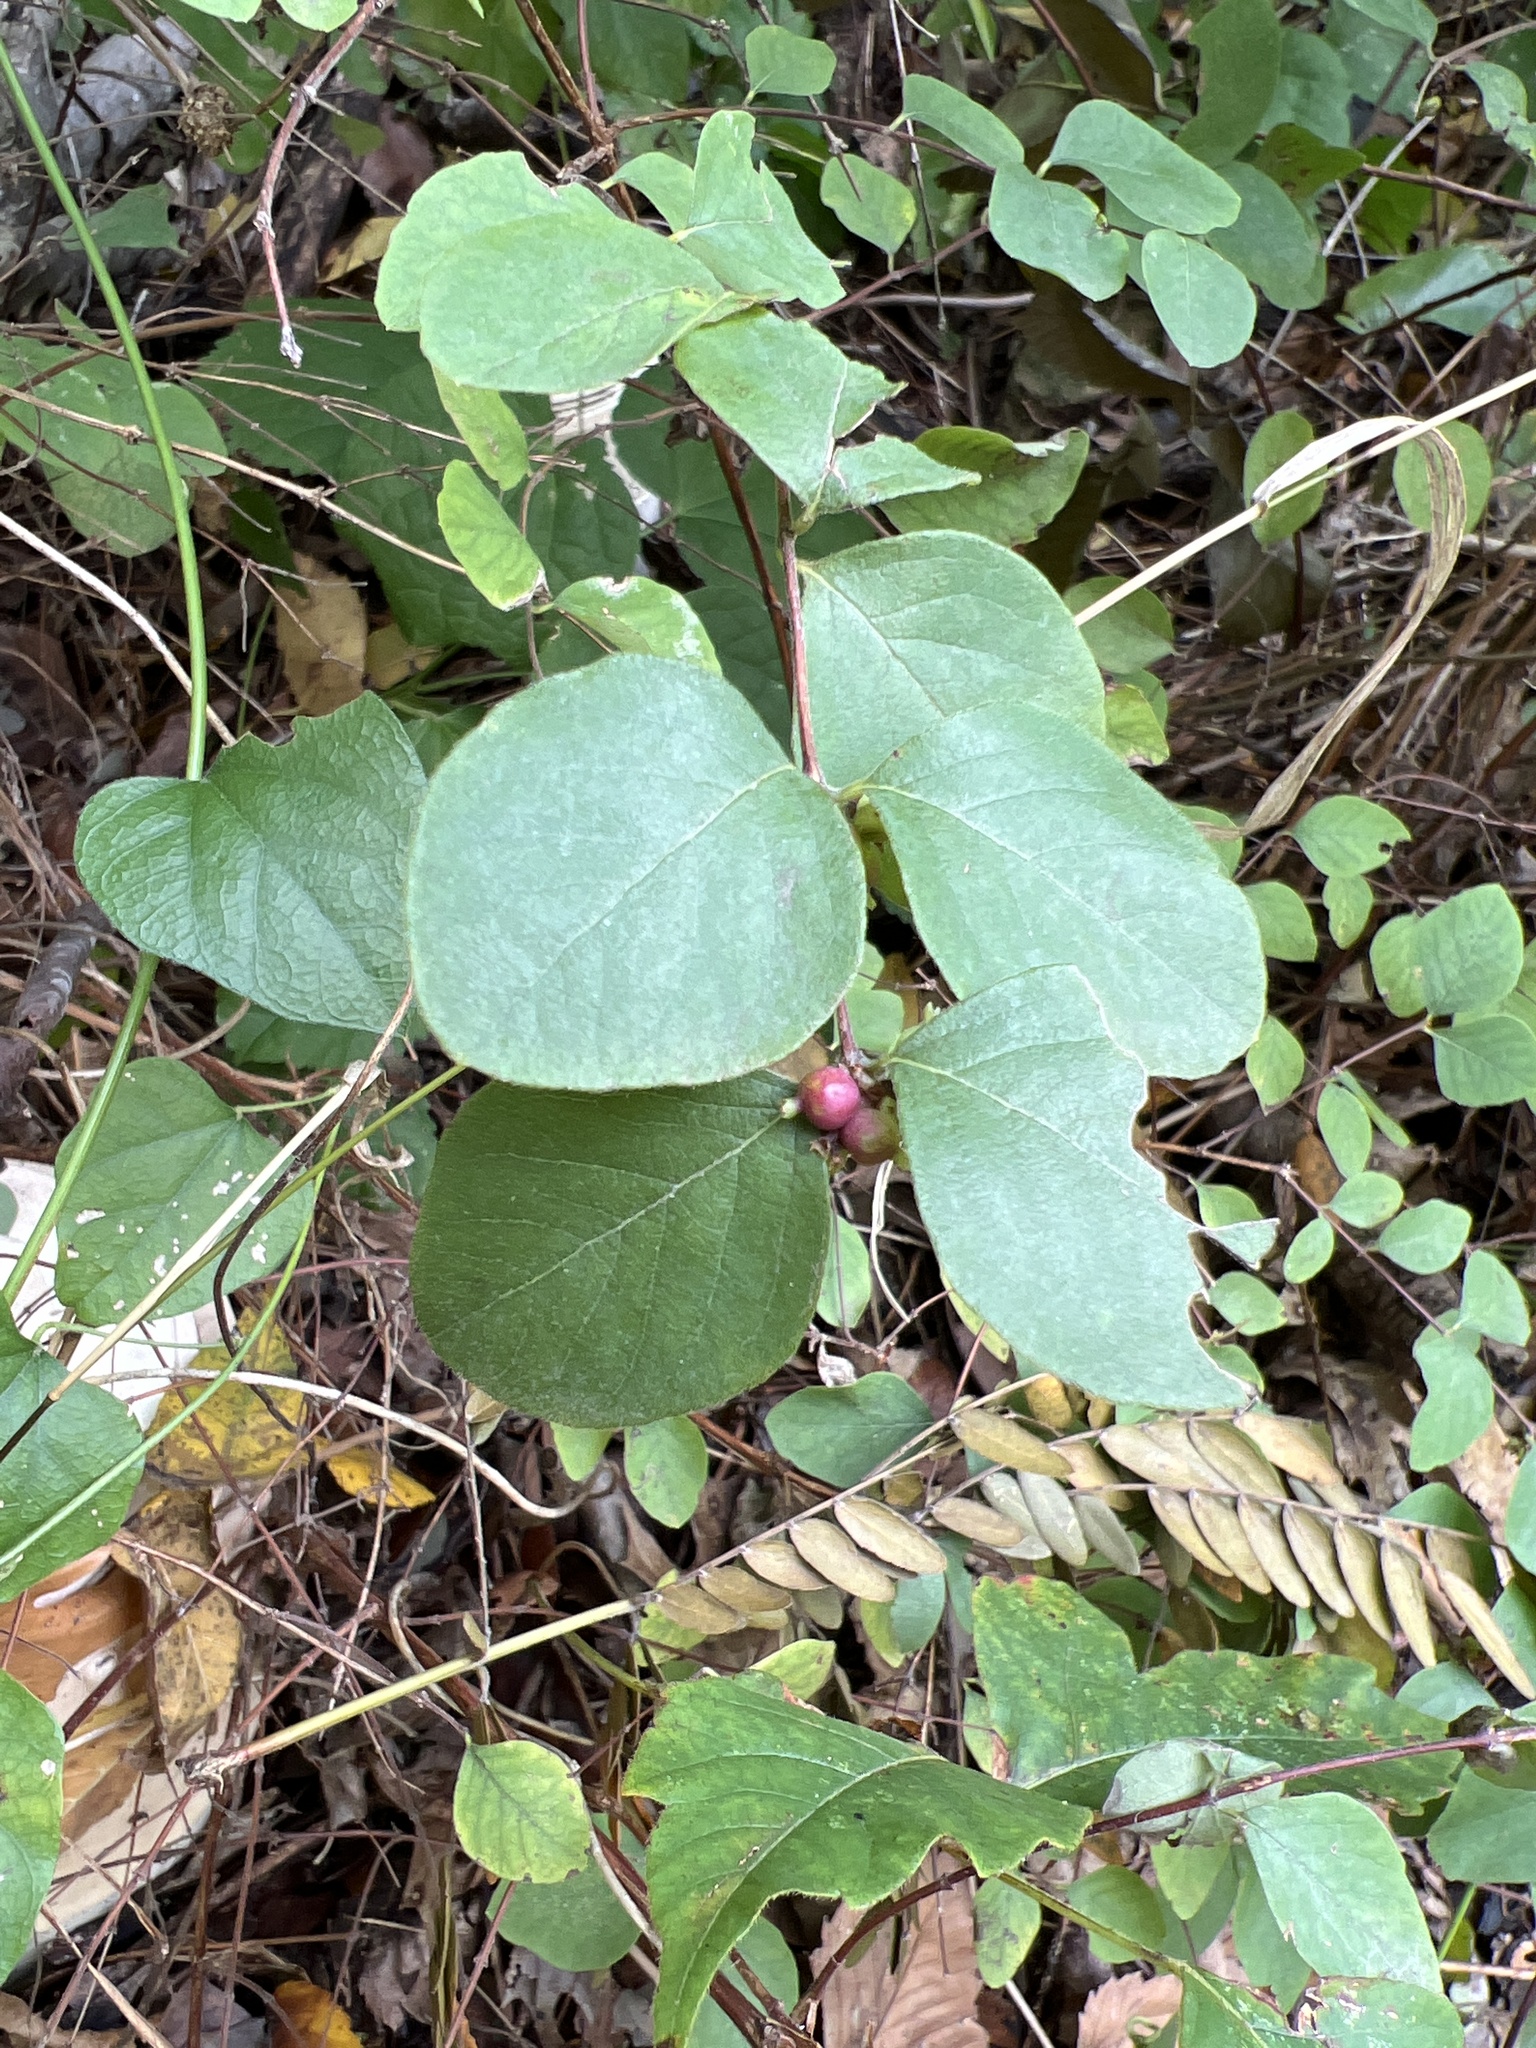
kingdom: Plantae
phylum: Tracheophyta
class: Magnoliopsida
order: Dipsacales
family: Caprifoliaceae
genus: Symphoricarpos
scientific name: Symphoricarpos orbiculatus
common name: Coralberry
